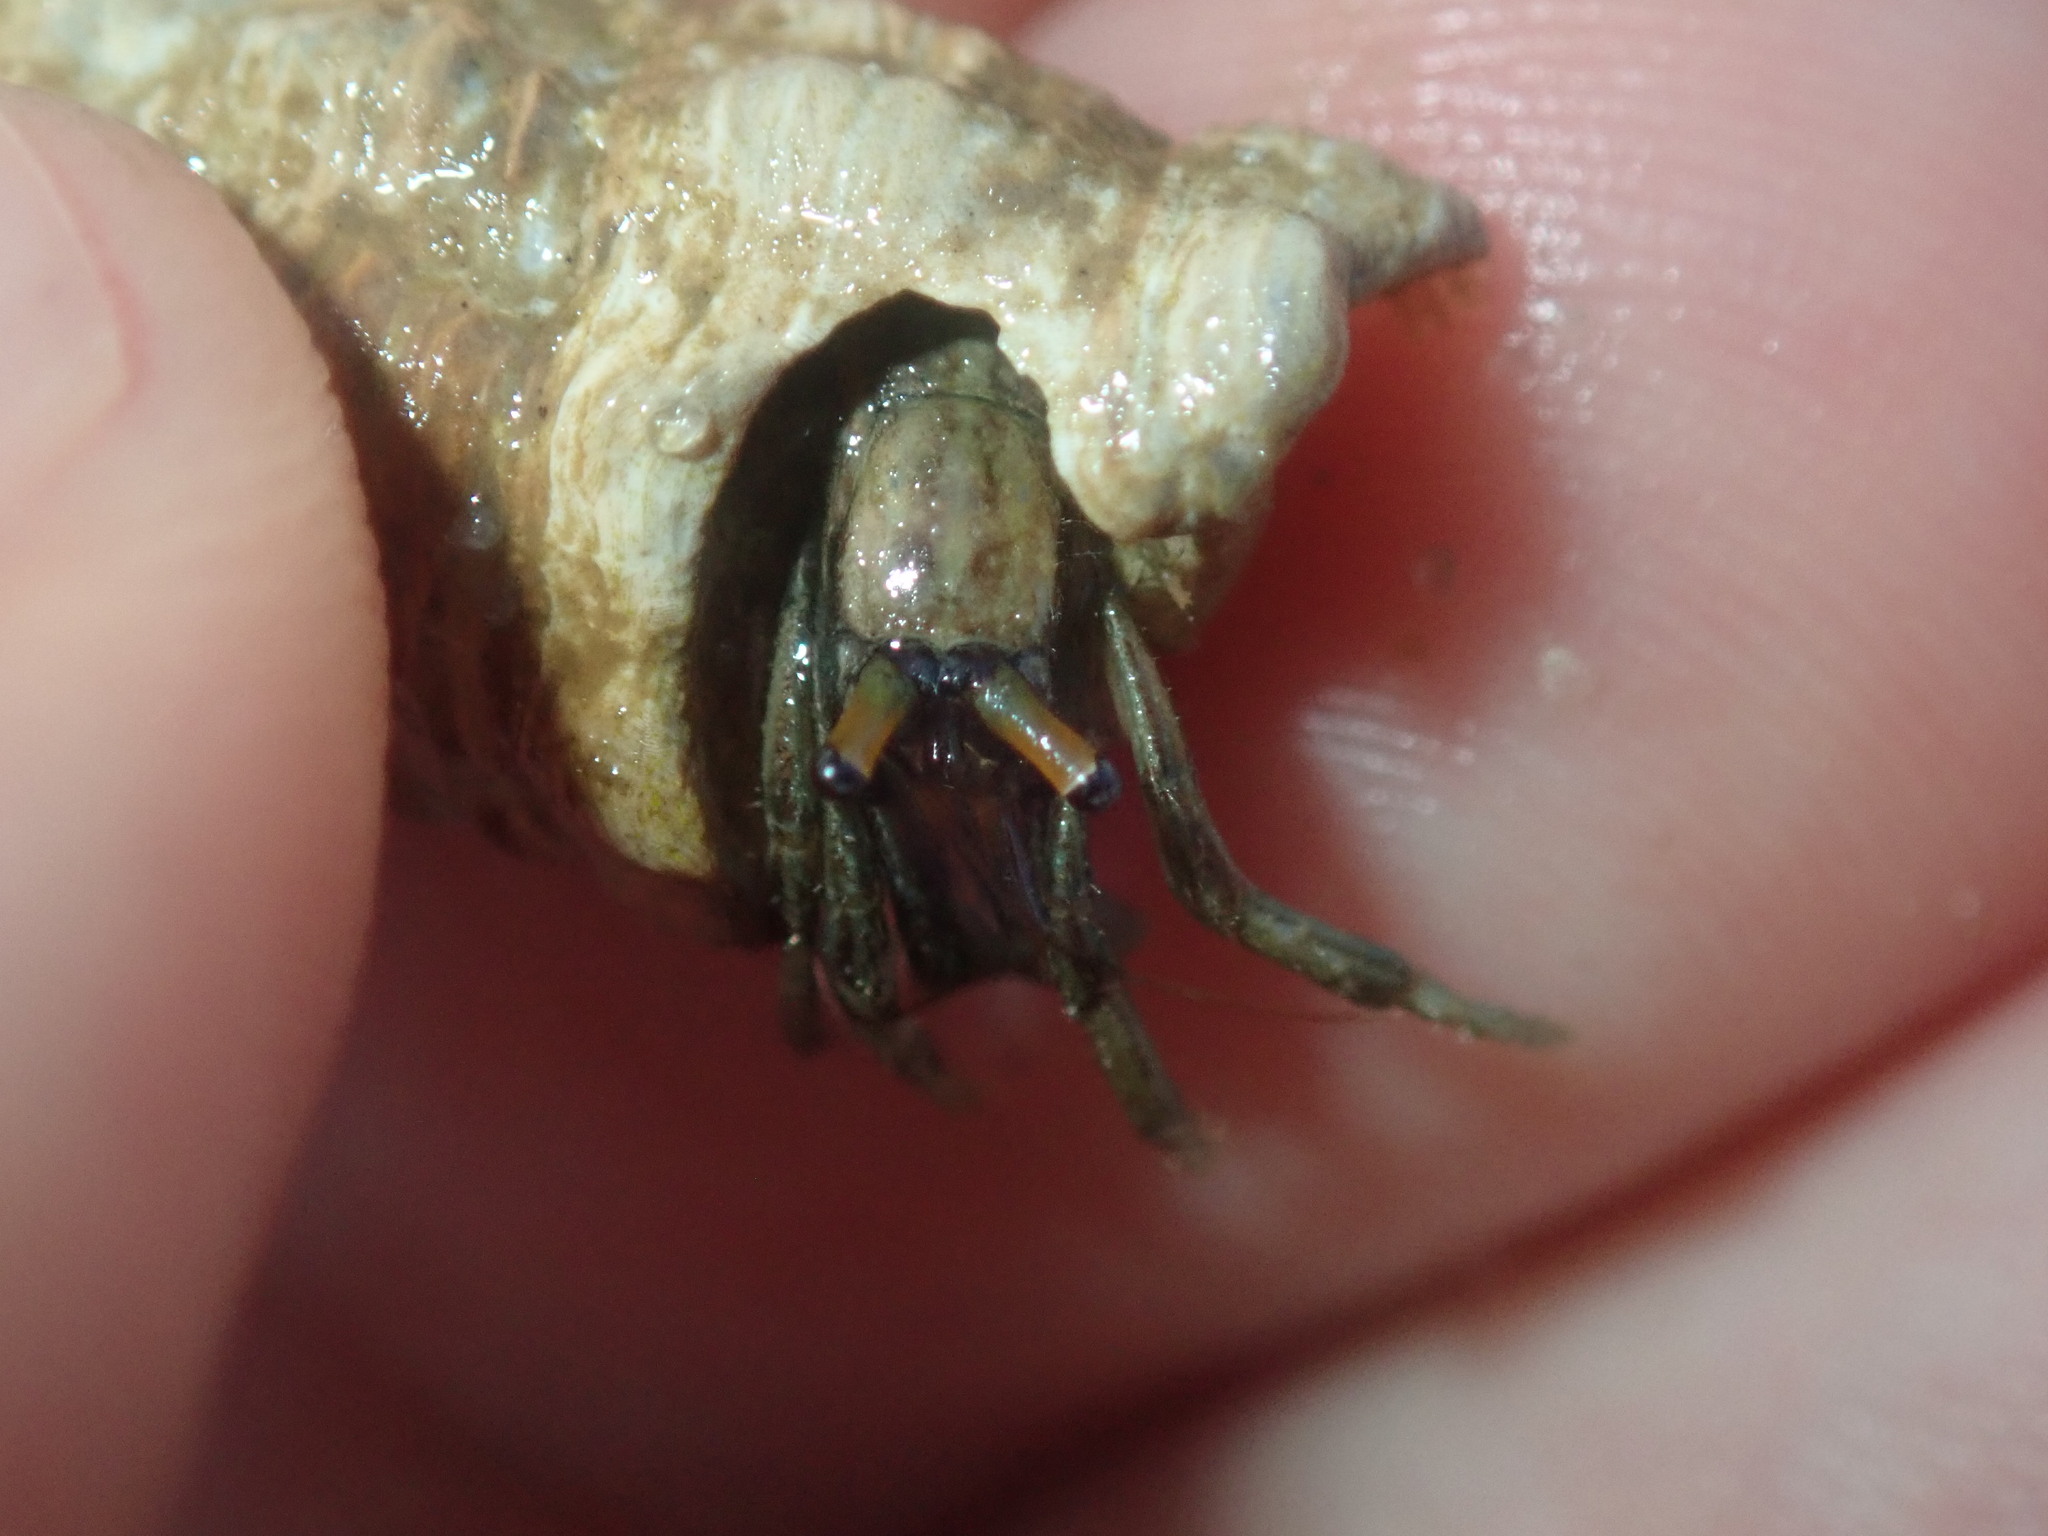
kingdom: Animalia
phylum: Arthropoda
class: Malacostraca
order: Decapoda
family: Diogenidae
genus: Clibanarius
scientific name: Clibanarius longitarsus
